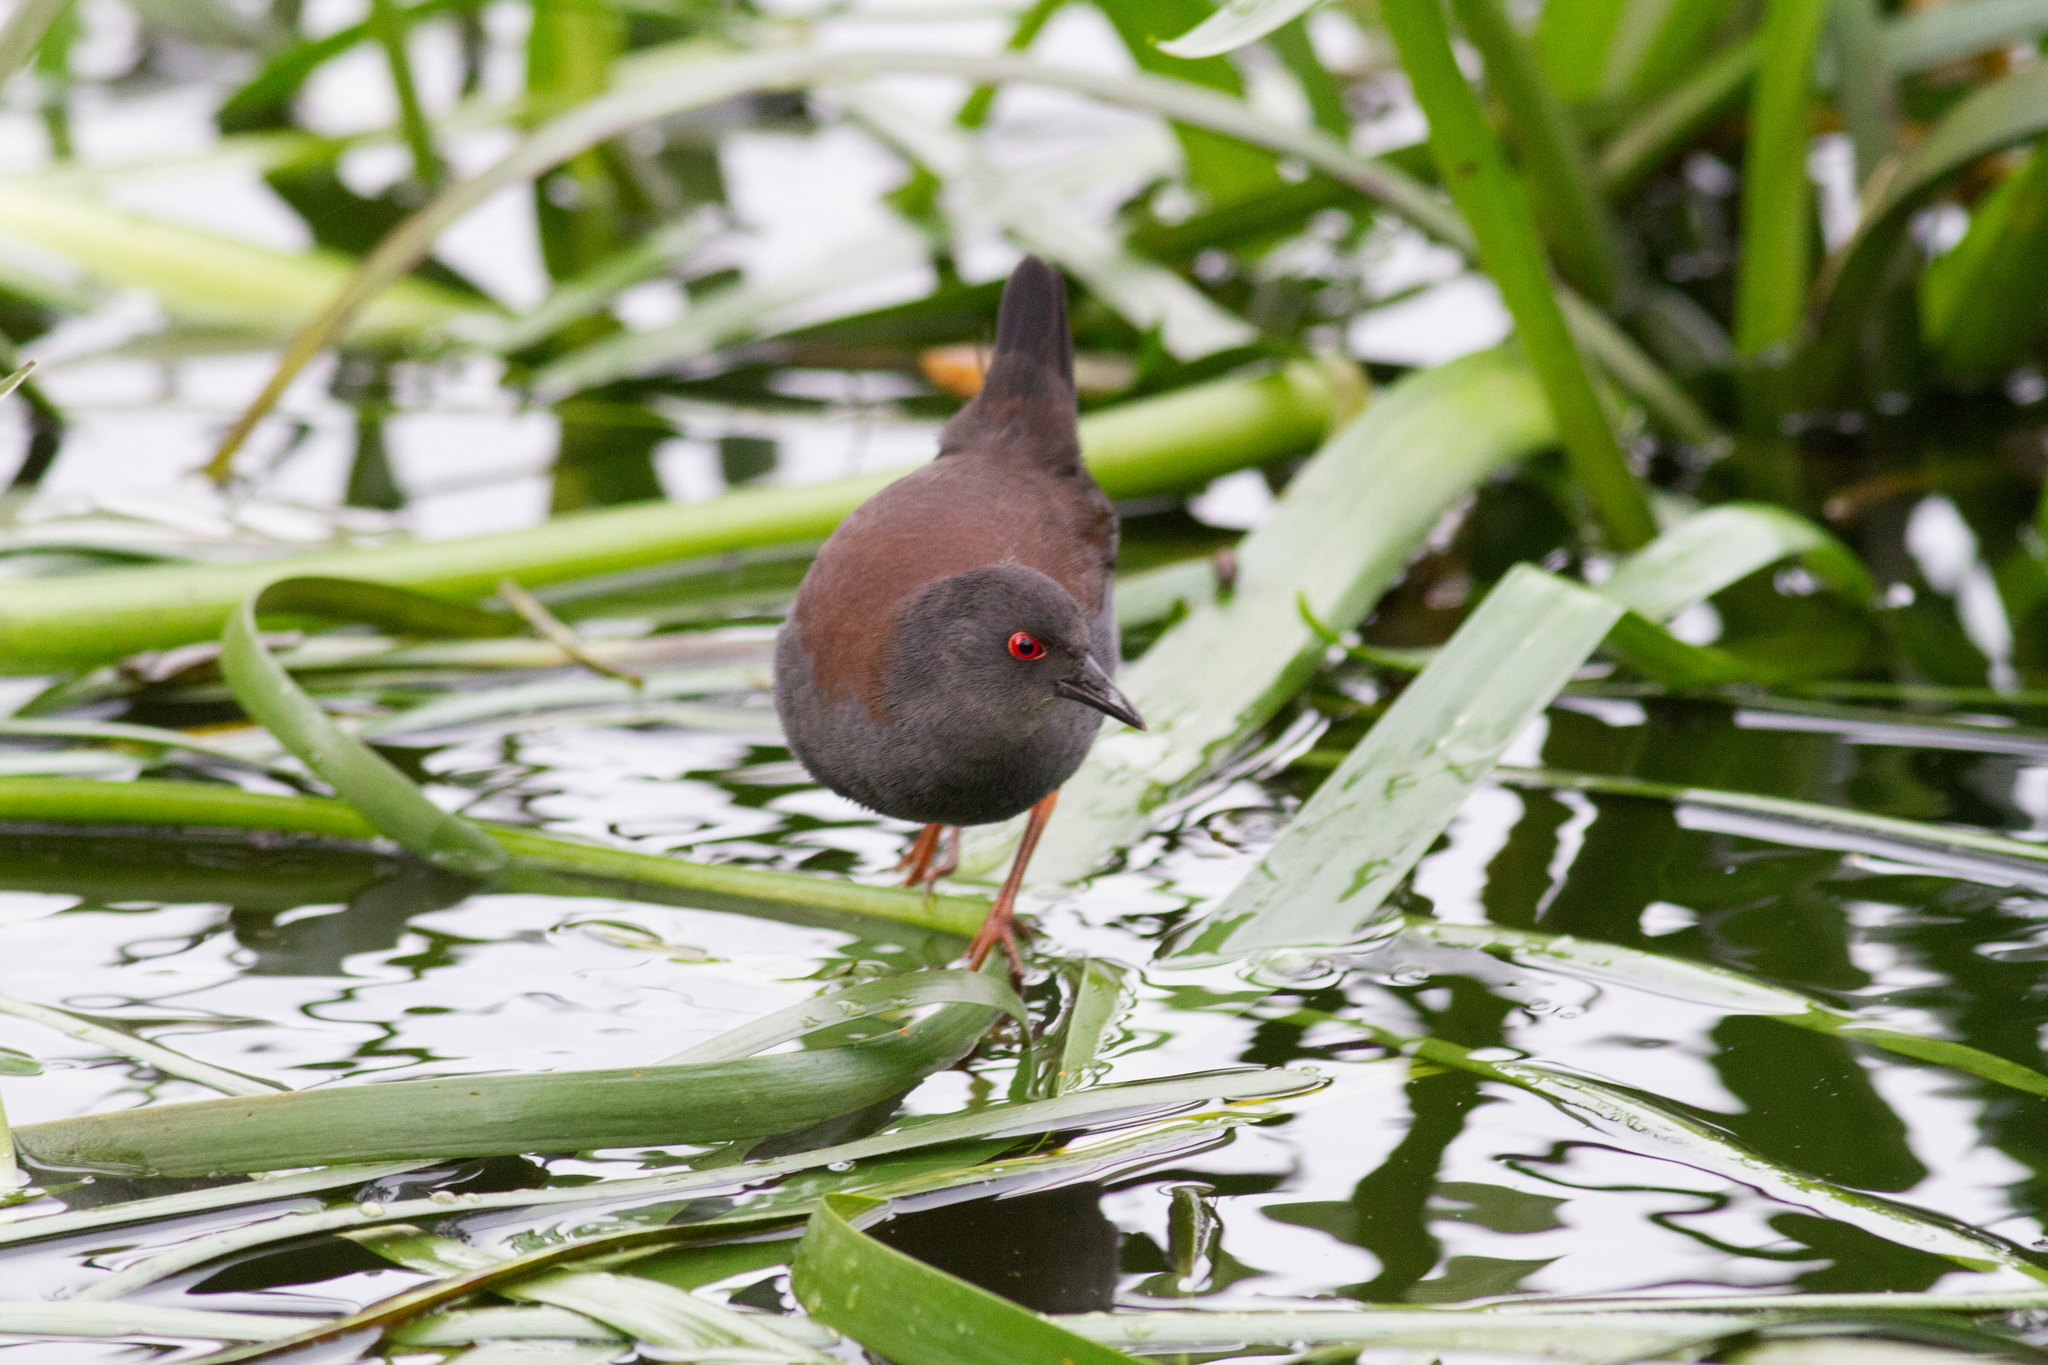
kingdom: Animalia
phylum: Chordata
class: Aves
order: Gruiformes
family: Rallidae
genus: Porzana
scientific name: Porzana tabuensis
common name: Spotless crake
